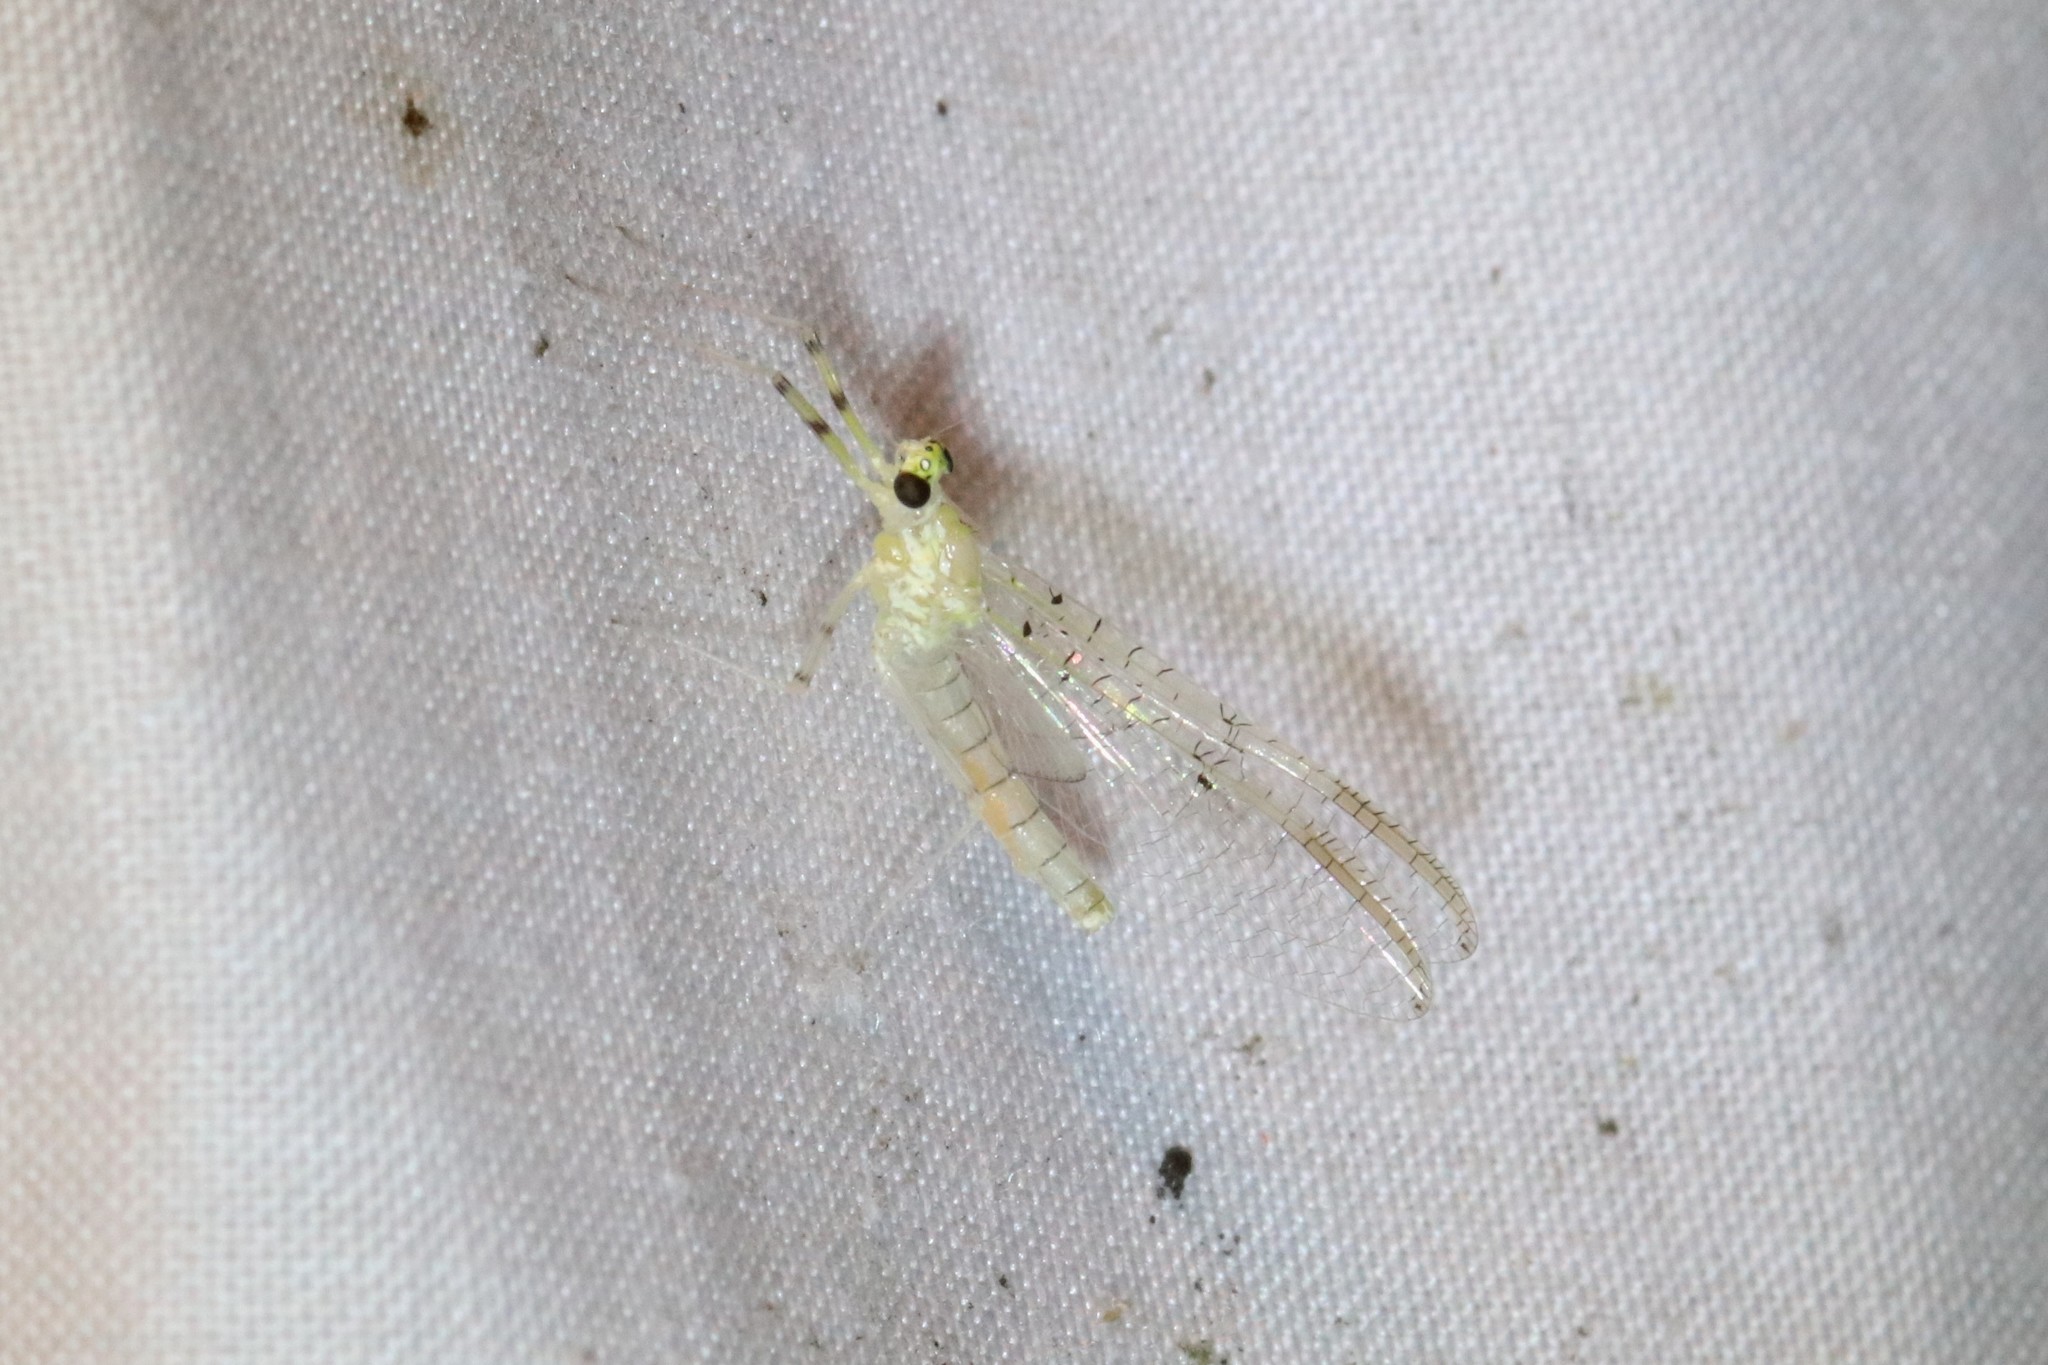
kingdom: Animalia
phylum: Arthropoda
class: Insecta
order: Ephemeroptera
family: Heptageniidae
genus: Stenacron
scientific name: Stenacron interpunctatum
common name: Orange cahill
